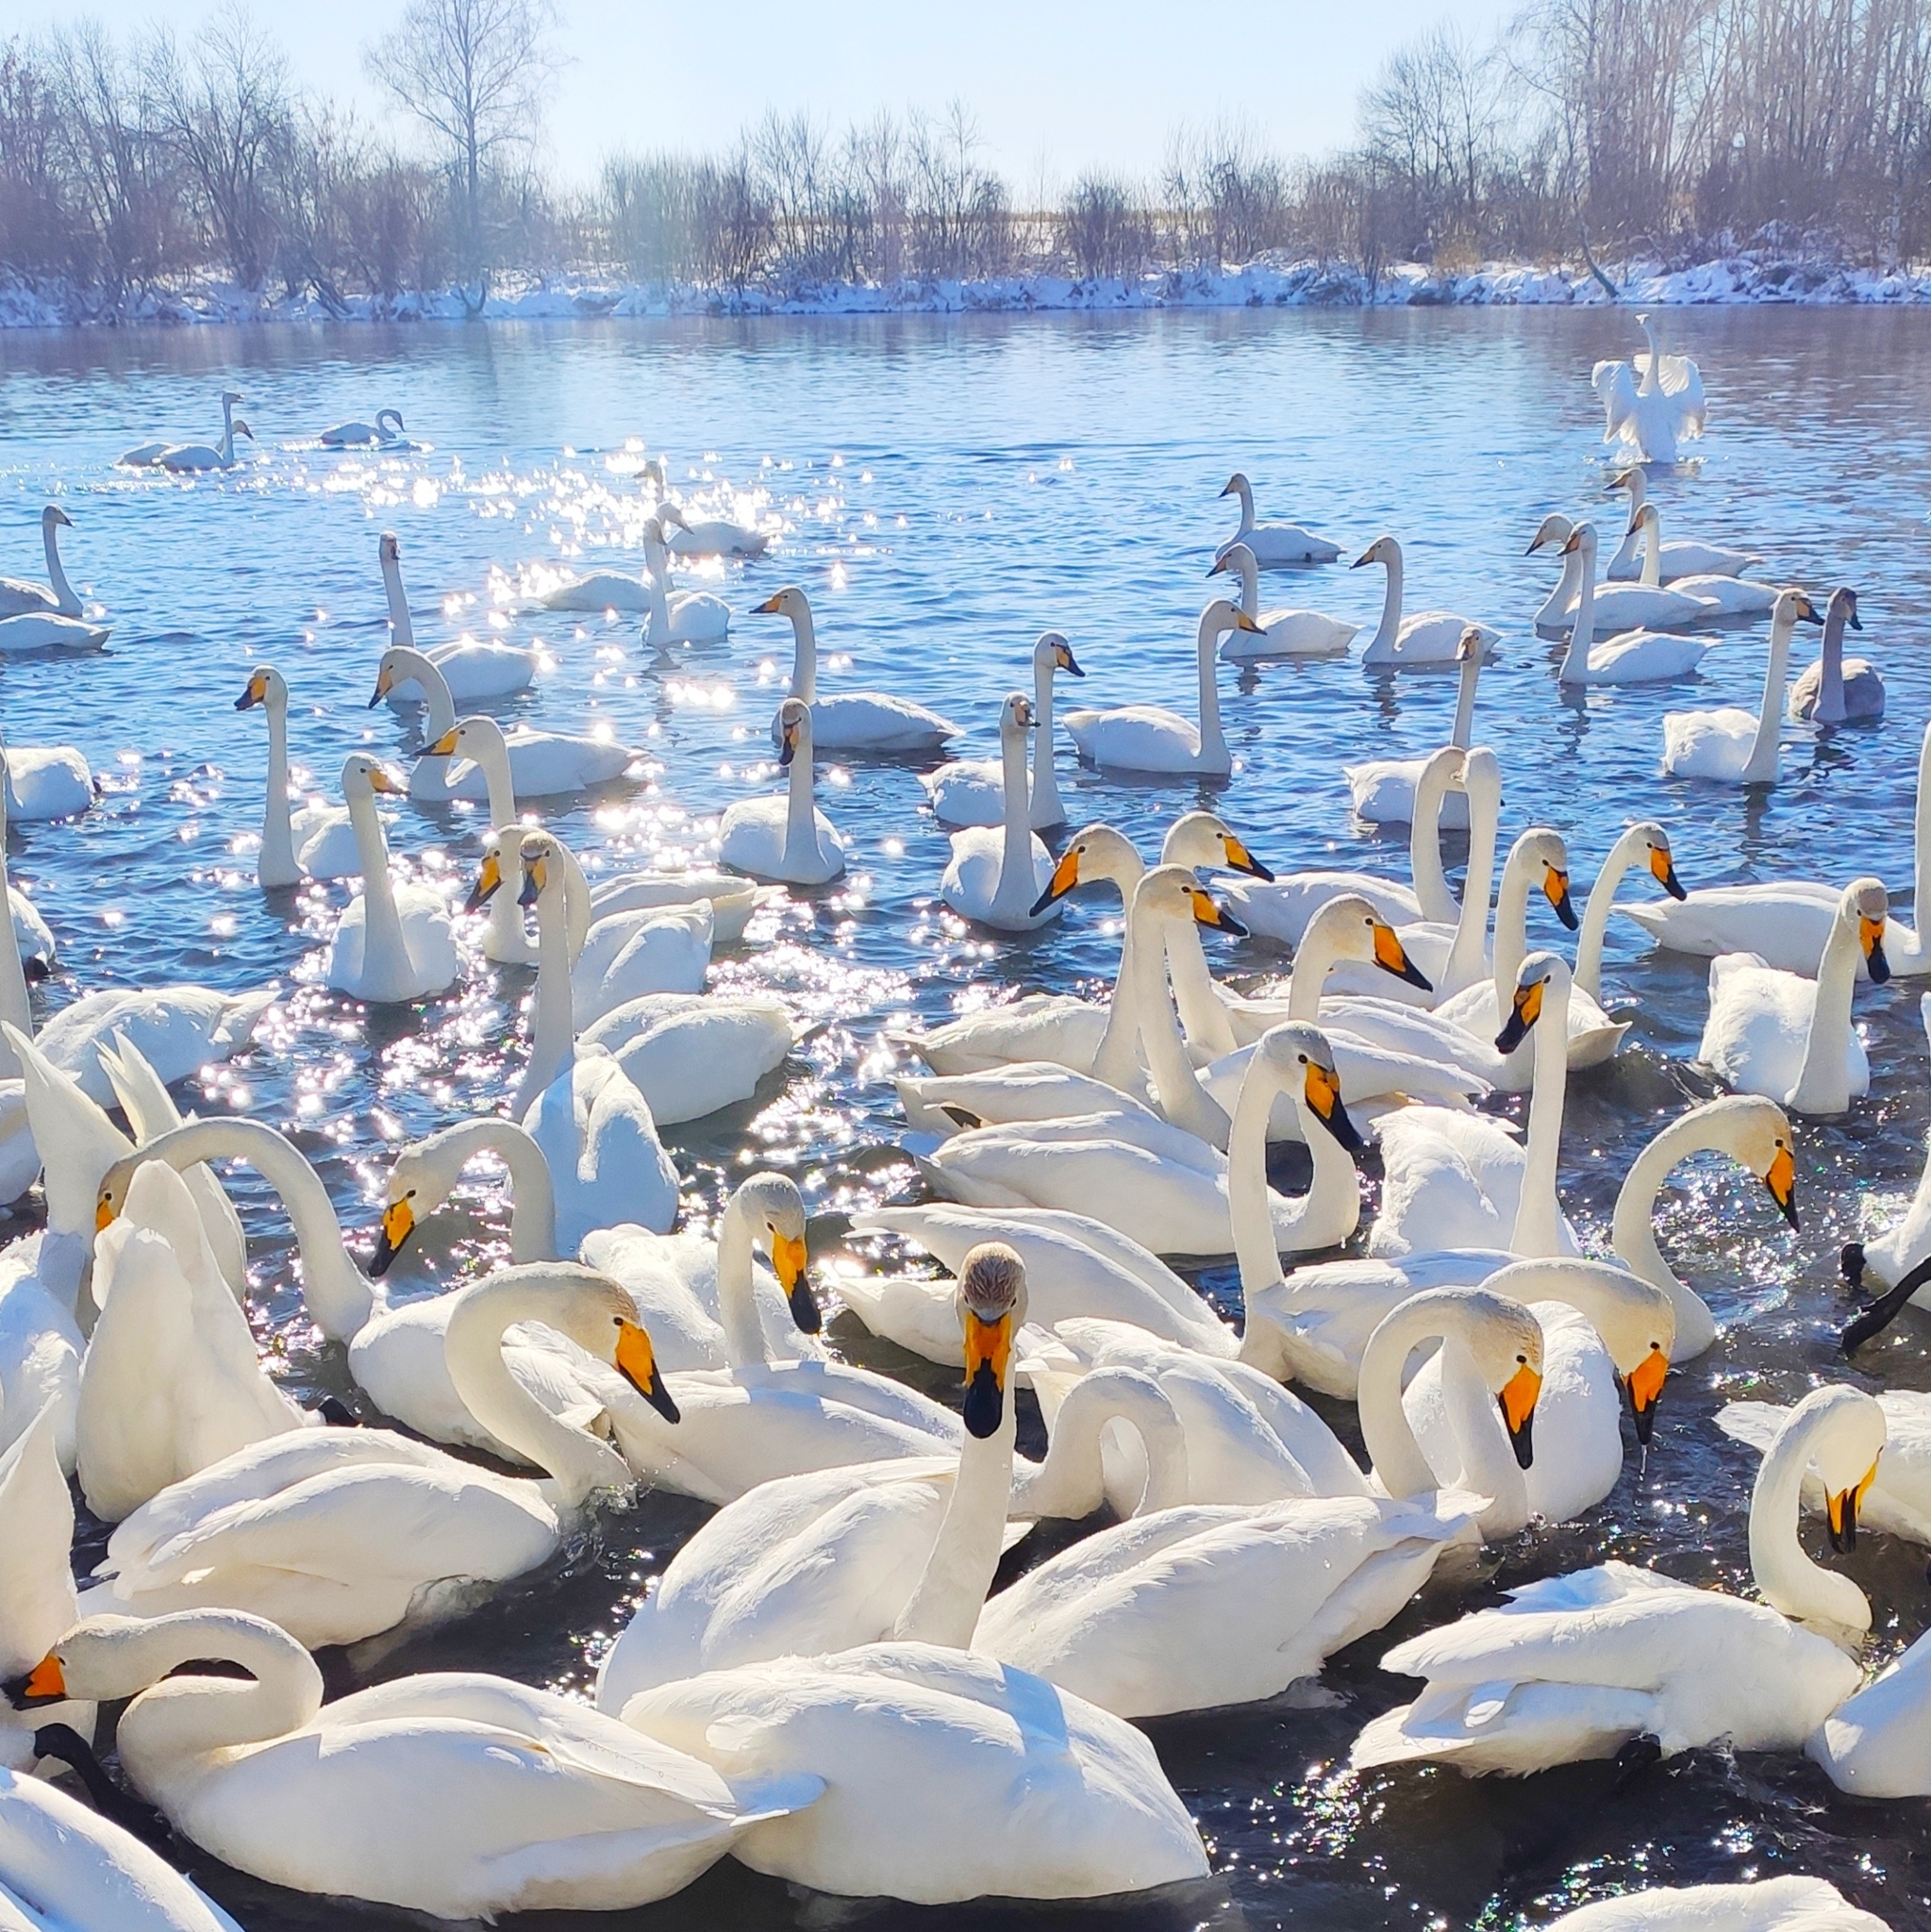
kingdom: Animalia
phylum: Chordata
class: Aves
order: Anseriformes
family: Anatidae
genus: Cygnus
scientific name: Cygnus cygnus
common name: Whooper swan
